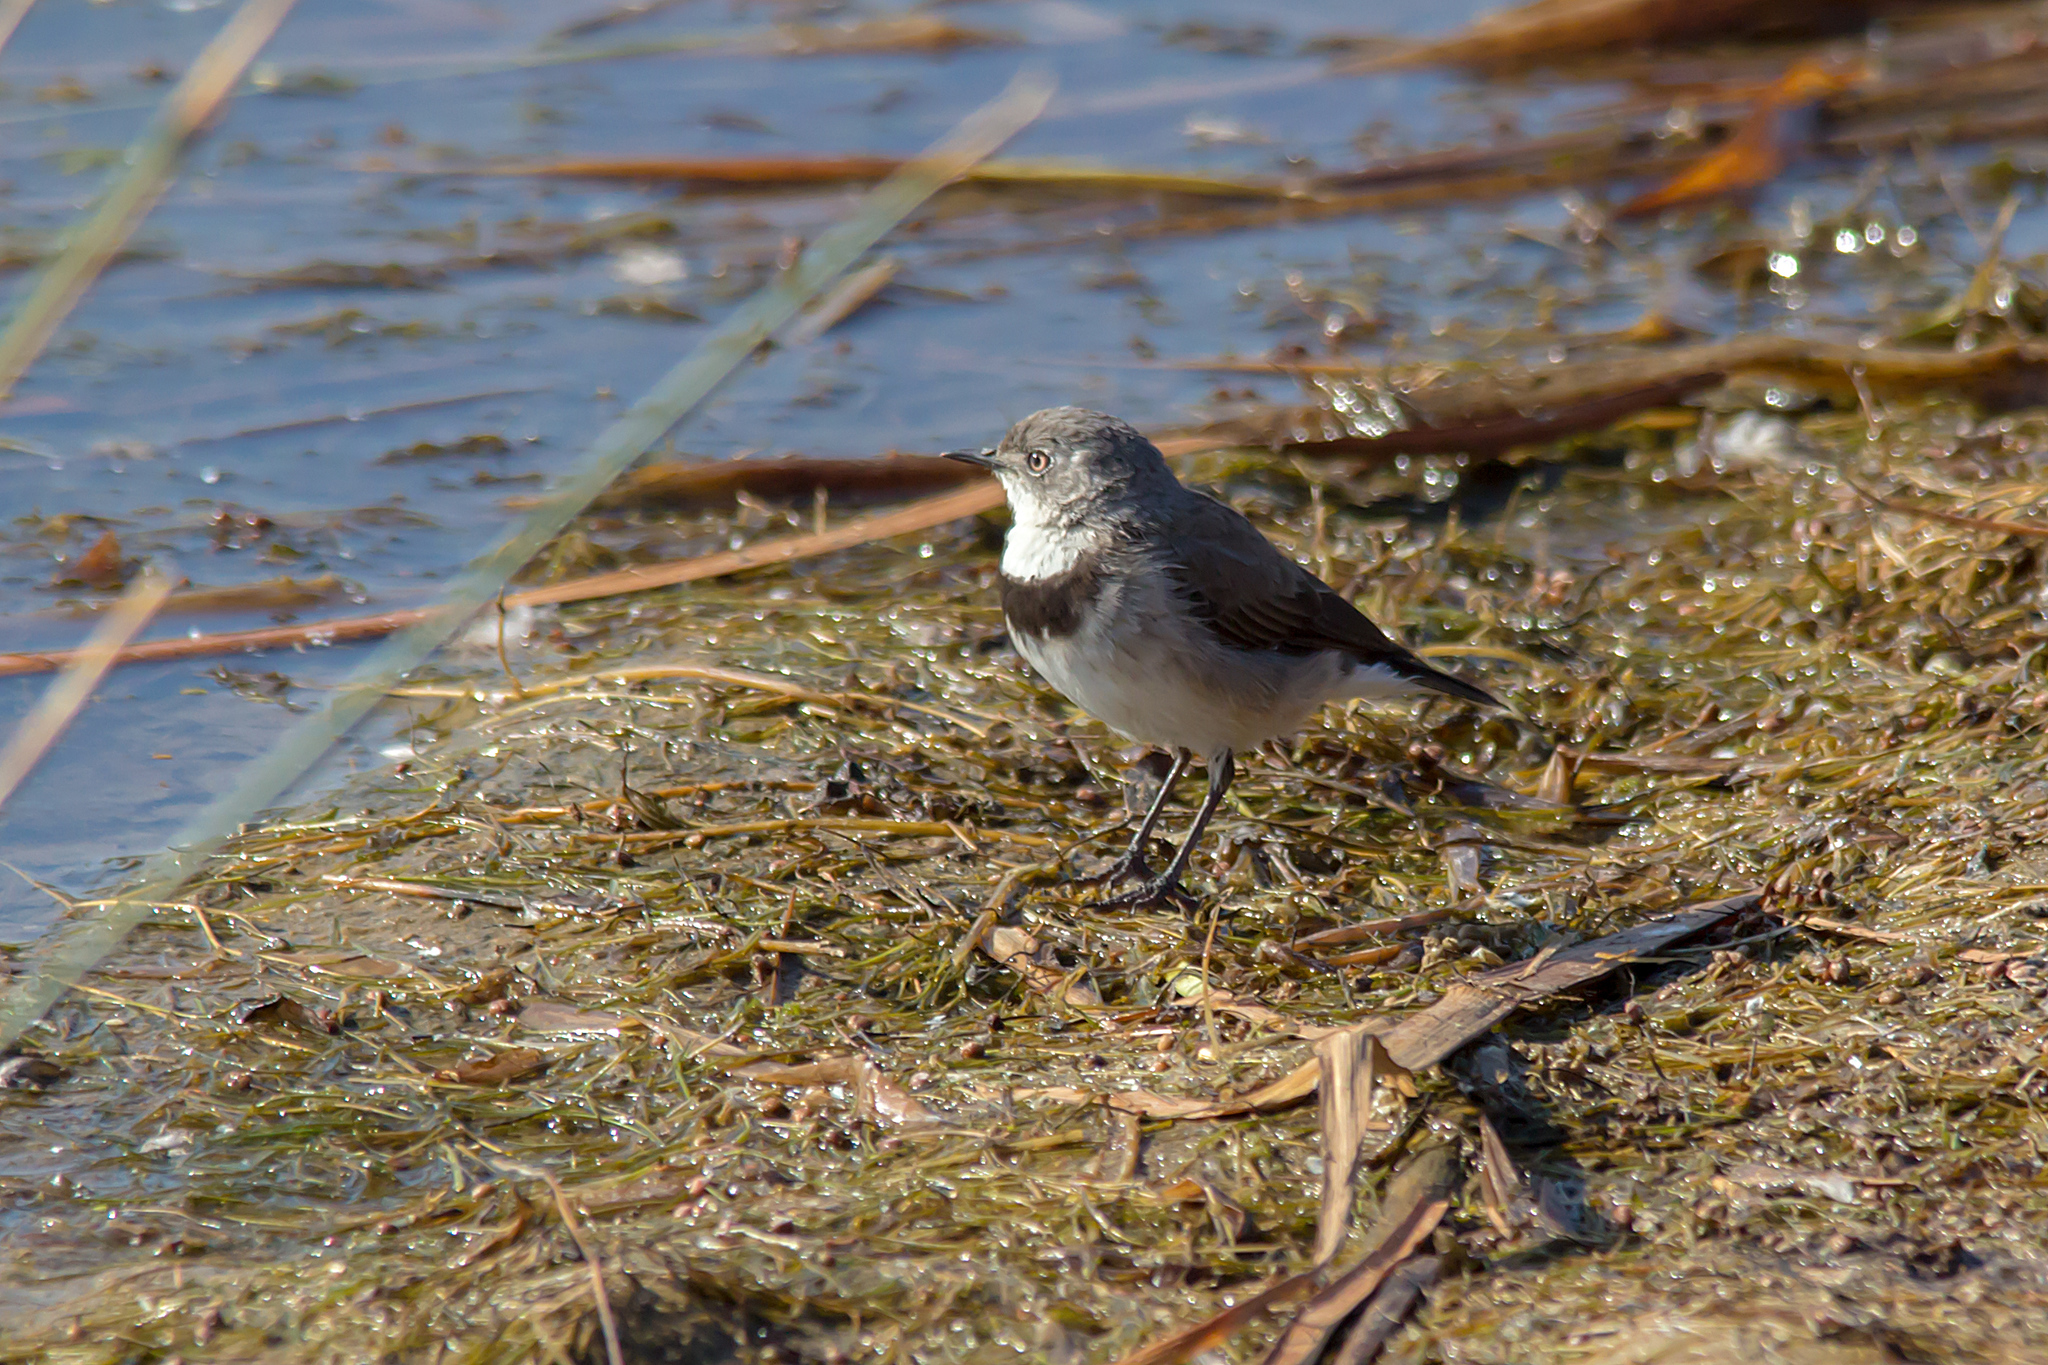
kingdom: Animalia
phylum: Chordata
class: Aves
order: Passeriformes
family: Meliphagidae
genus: Epthianura
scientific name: Epthianura albifrons
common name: White-fronted chat
